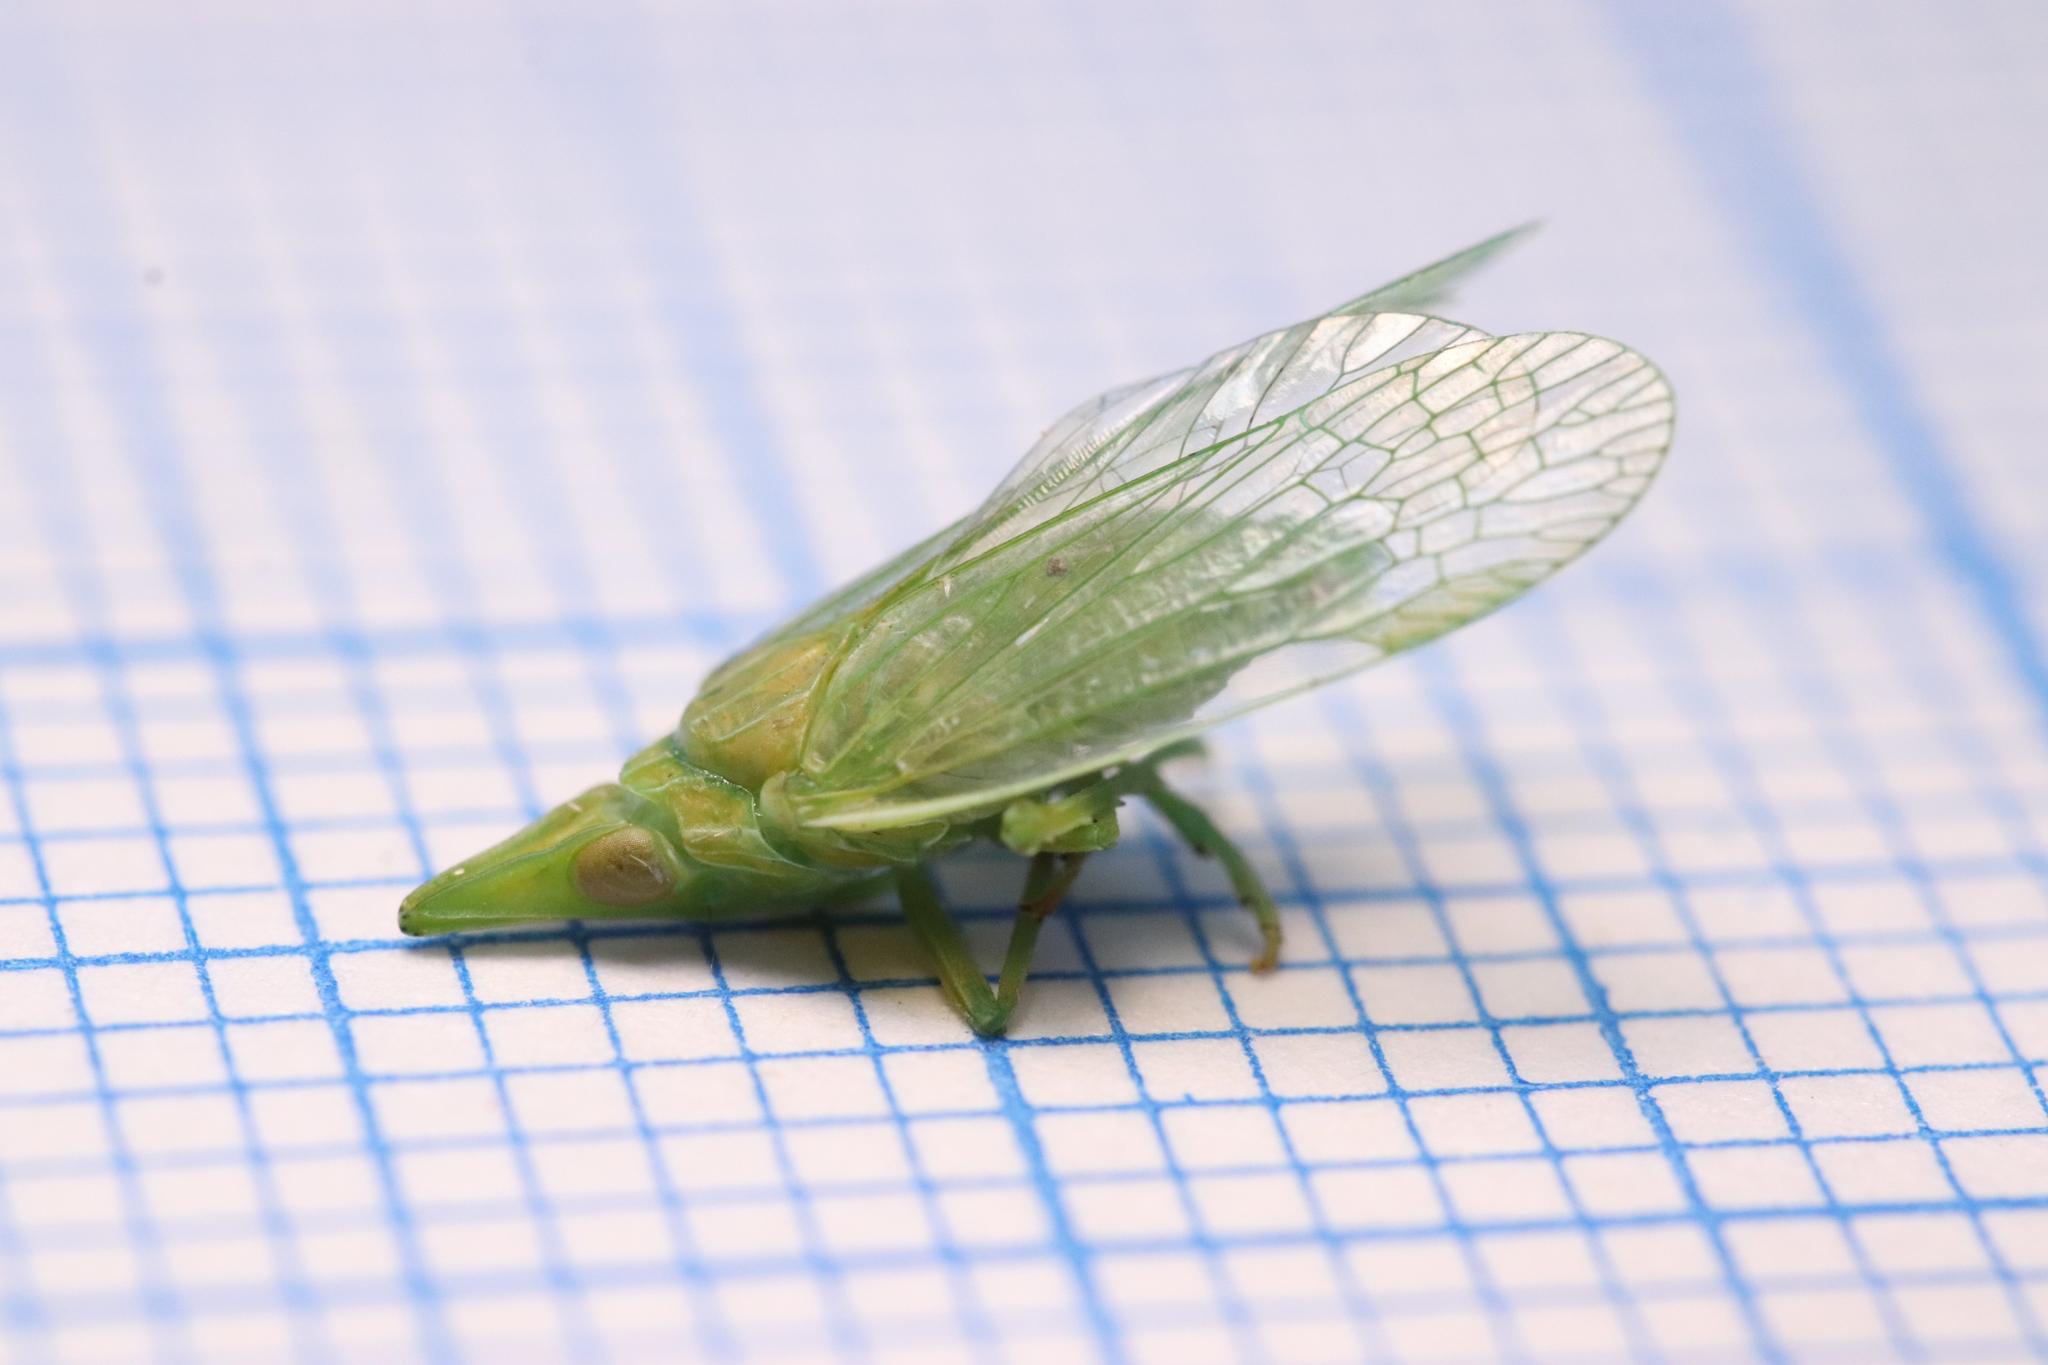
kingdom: Animalia
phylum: Arthropoda
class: Insecta
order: Hemiptera
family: Dictyopharidae
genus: Dictyophara
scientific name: Dictyophara europaea
